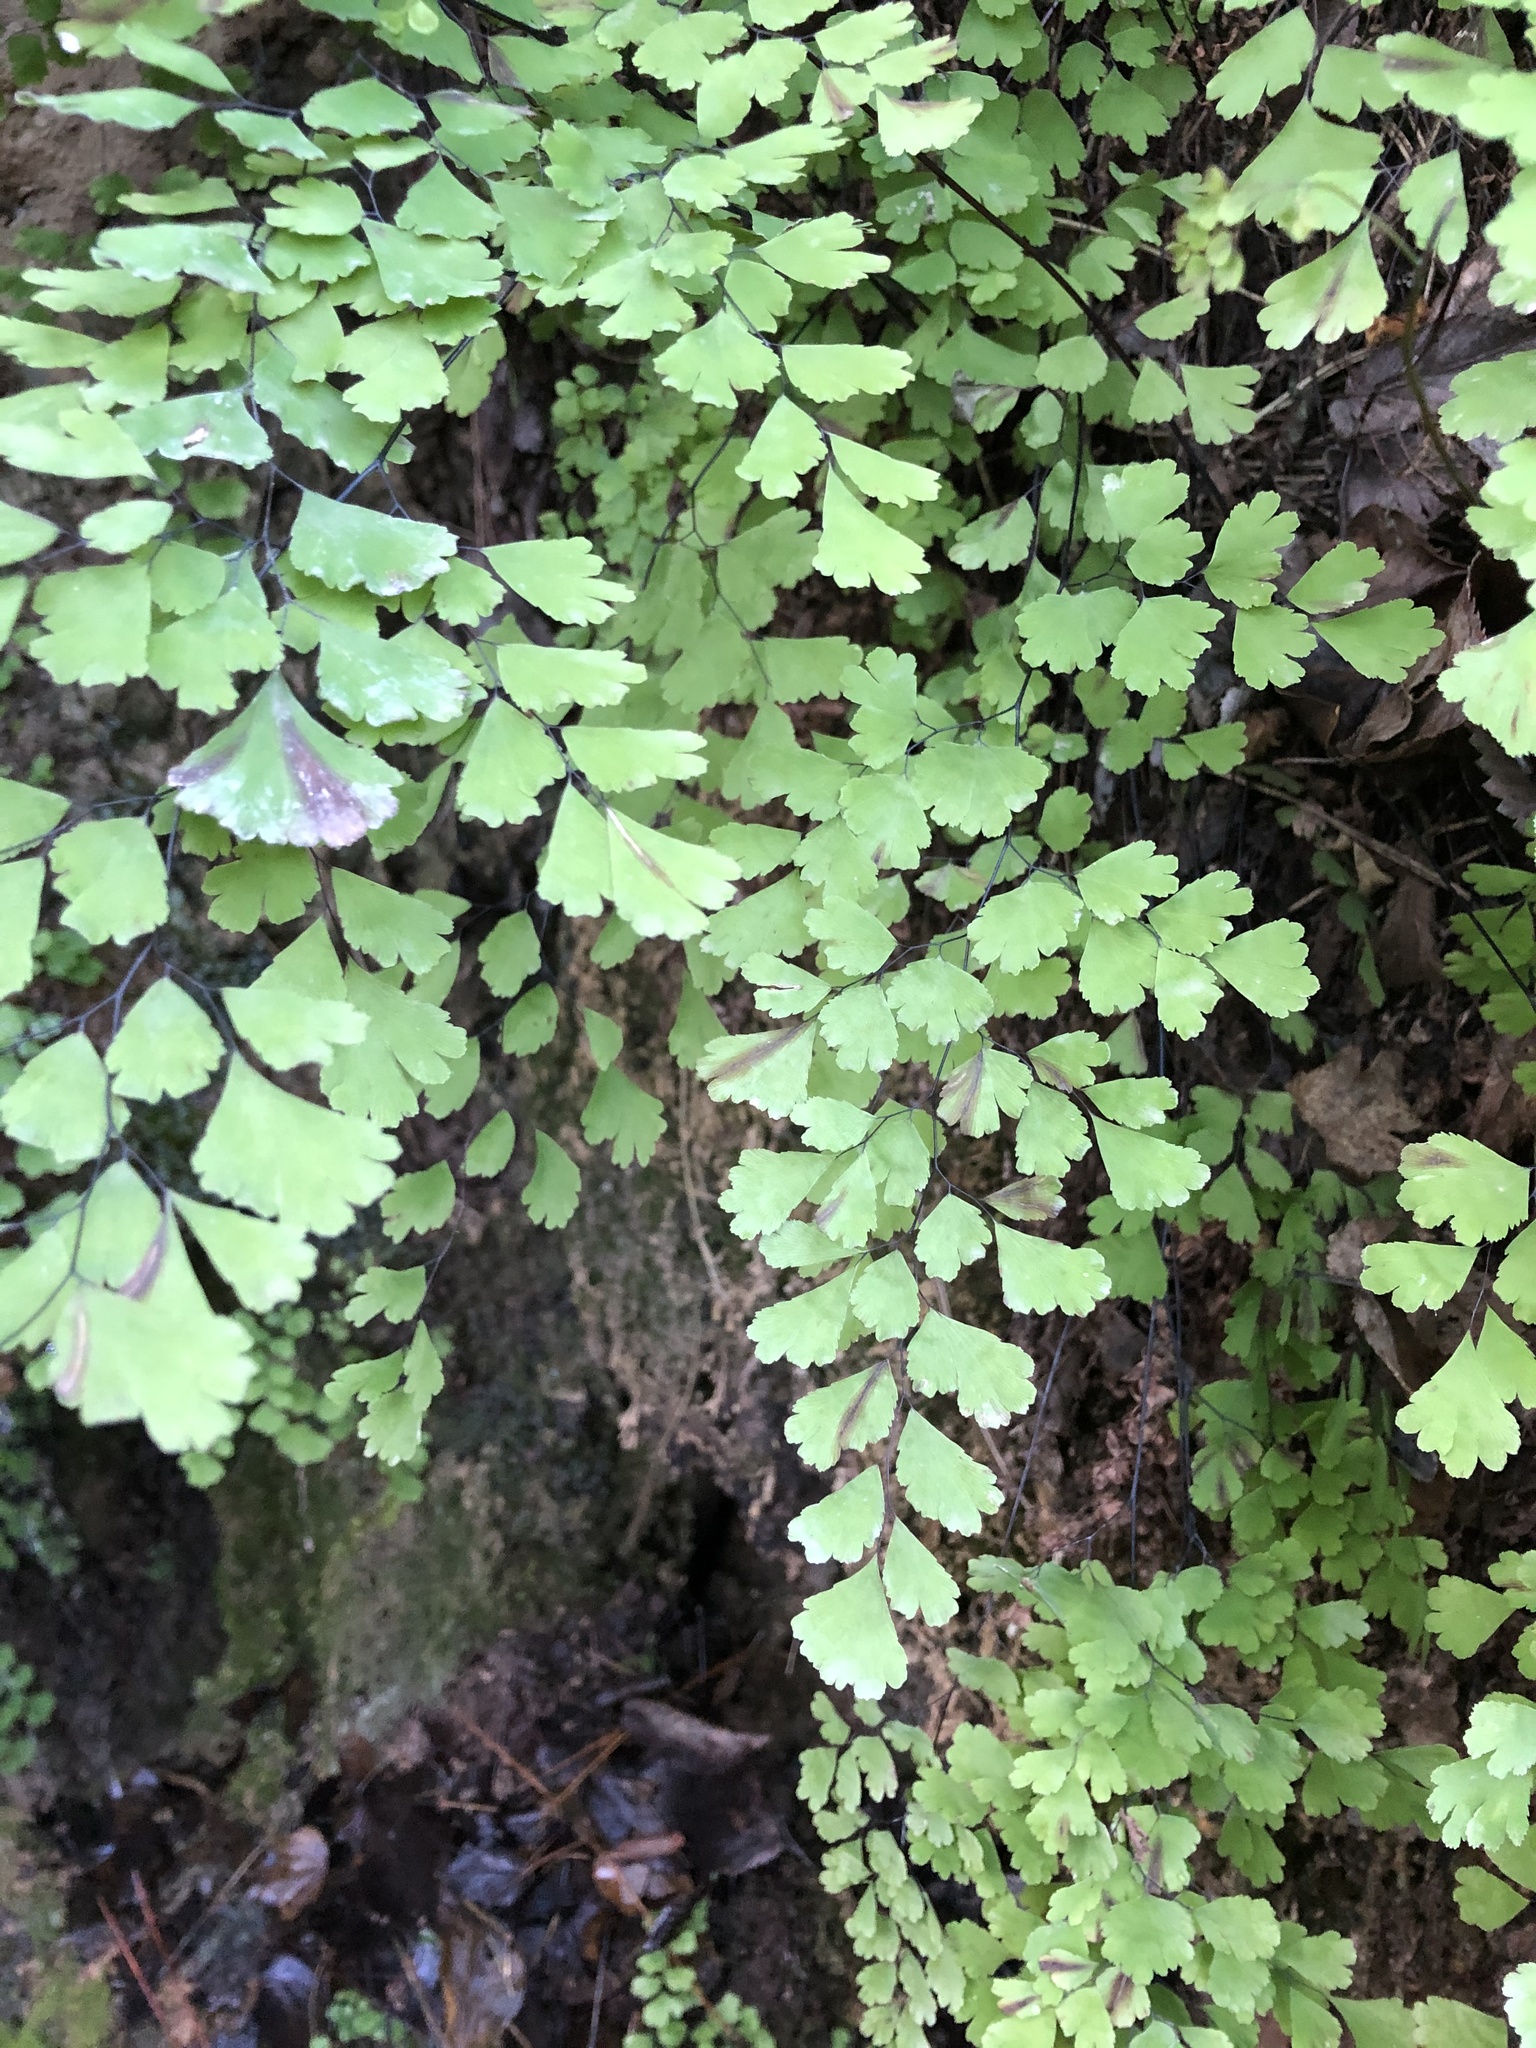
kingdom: Plantae
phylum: Tracheophyta
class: Polypodiopsida
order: Polypodiales
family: Pteridaceae
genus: Adiantum
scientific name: Adiantum capillus-veneris
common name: Maidenhair fern
